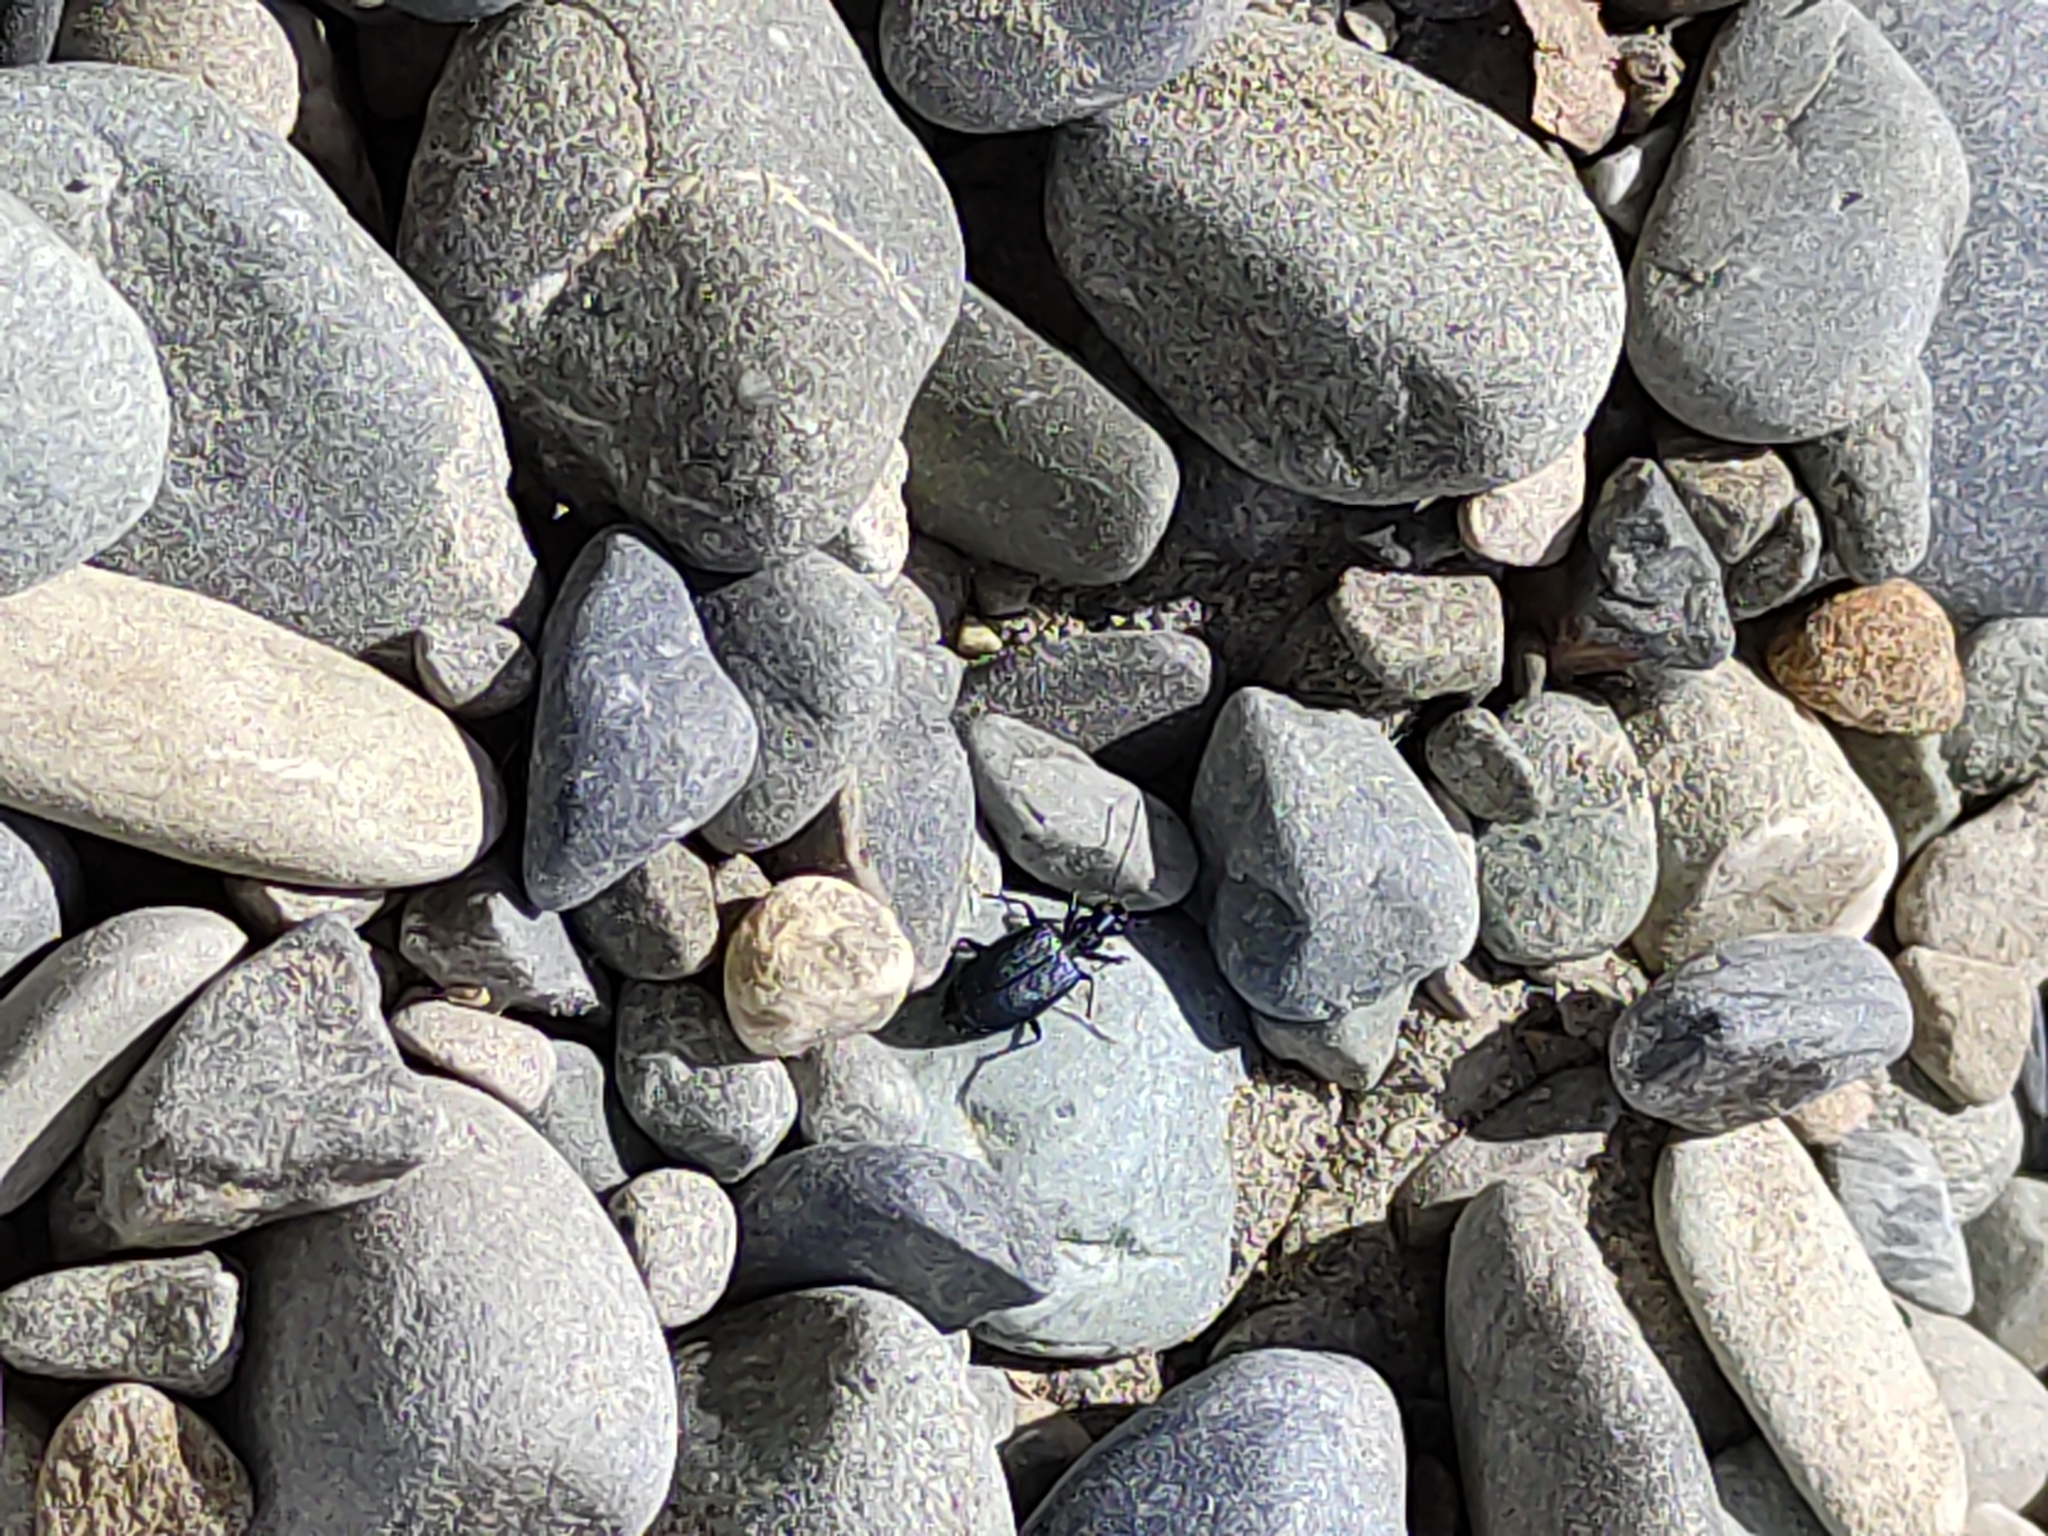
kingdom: Animalia
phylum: Arthropoda
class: Insecta
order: Coleoptera
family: Carabidae
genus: Actenonyx
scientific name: Actenonyx bembidioides
